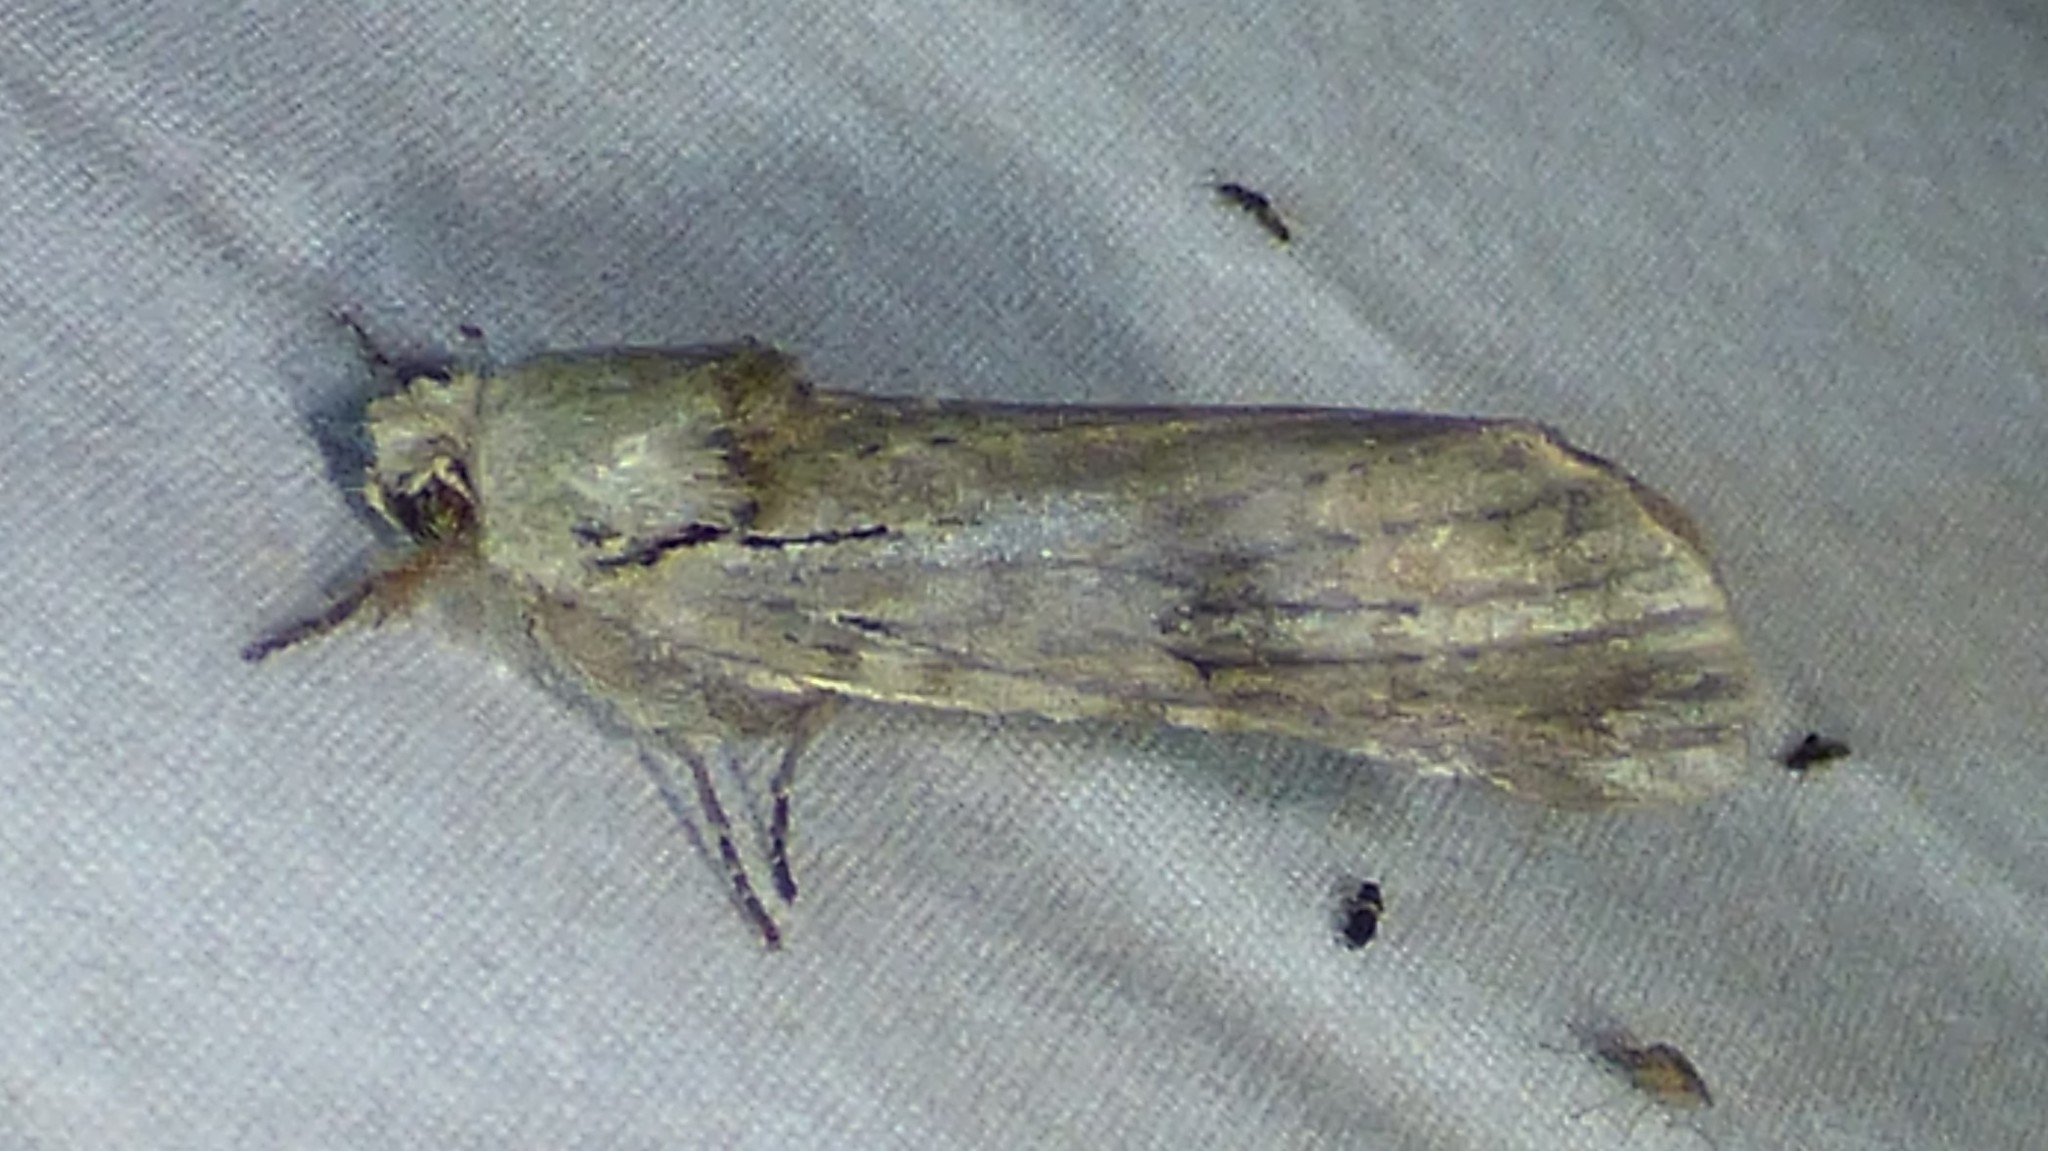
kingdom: Animalia
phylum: Arthropoda
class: Insecta
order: Lepidoptera
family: Notodontidae
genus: Schizura
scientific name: Schizura
